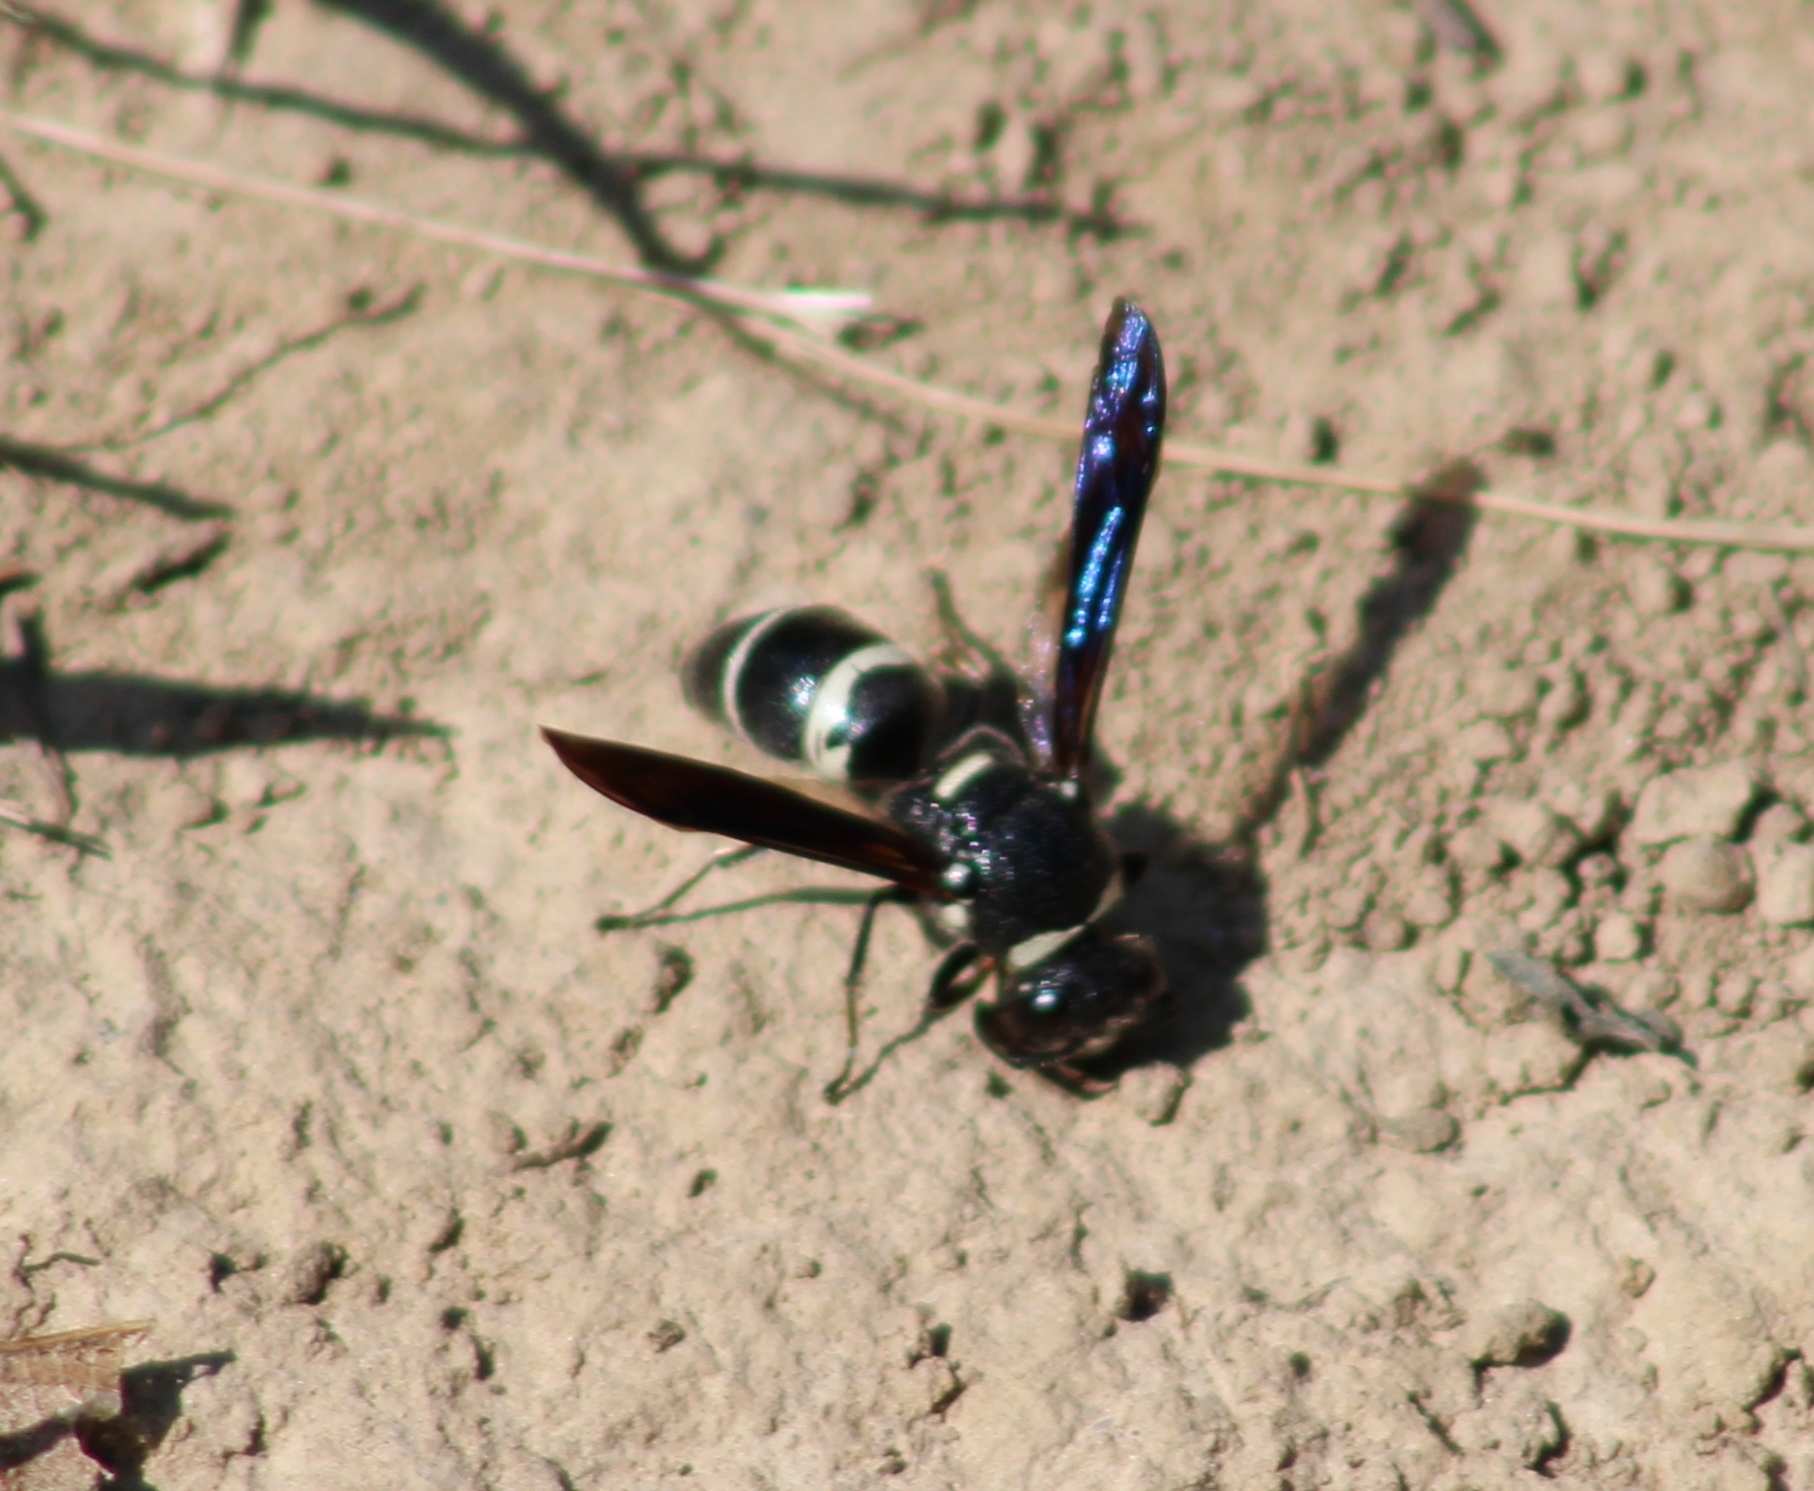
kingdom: Animalia
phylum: Arthropoda
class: Insecta
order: Hymenoptera
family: Eumenidae
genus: Euodynerus
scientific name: Euodynerus megaera
